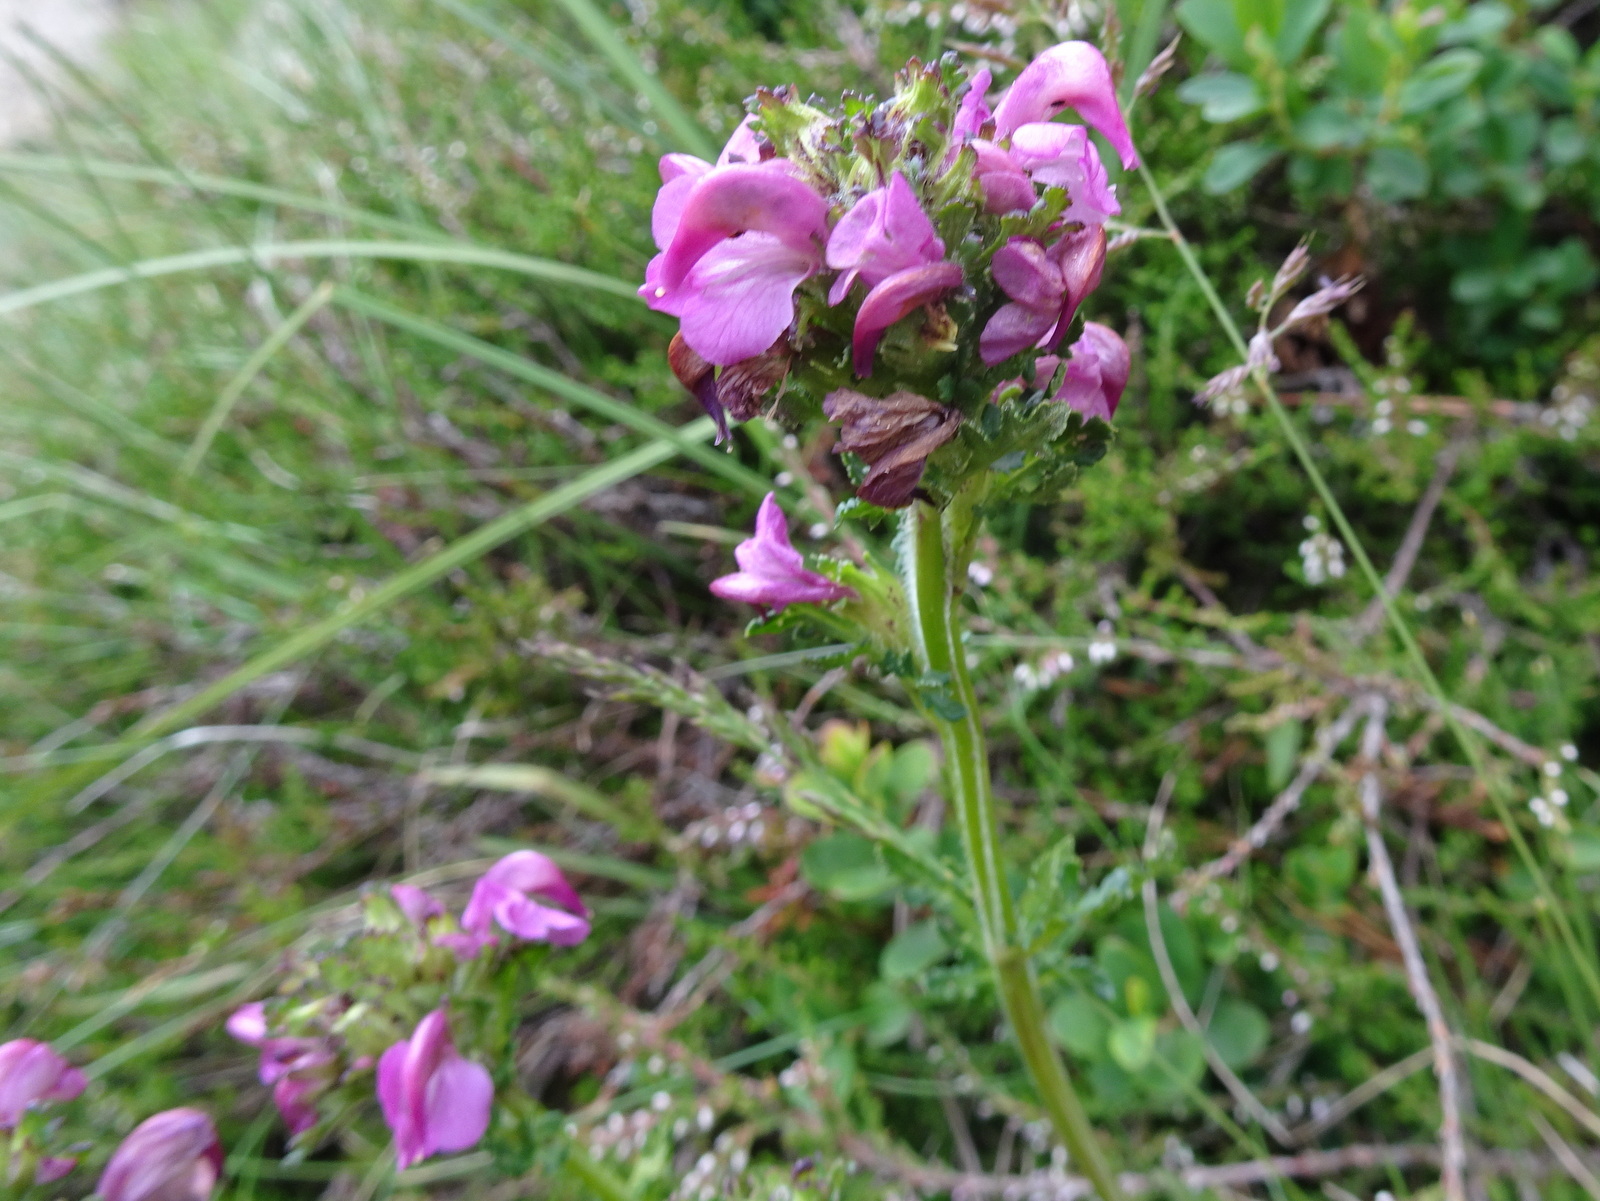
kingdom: Plantae
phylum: Tracheophyta
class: Magnoliopsida
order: Lamiales
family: Orobanchaceae
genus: Pedicularis
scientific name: Pedicularis pyrenaica
